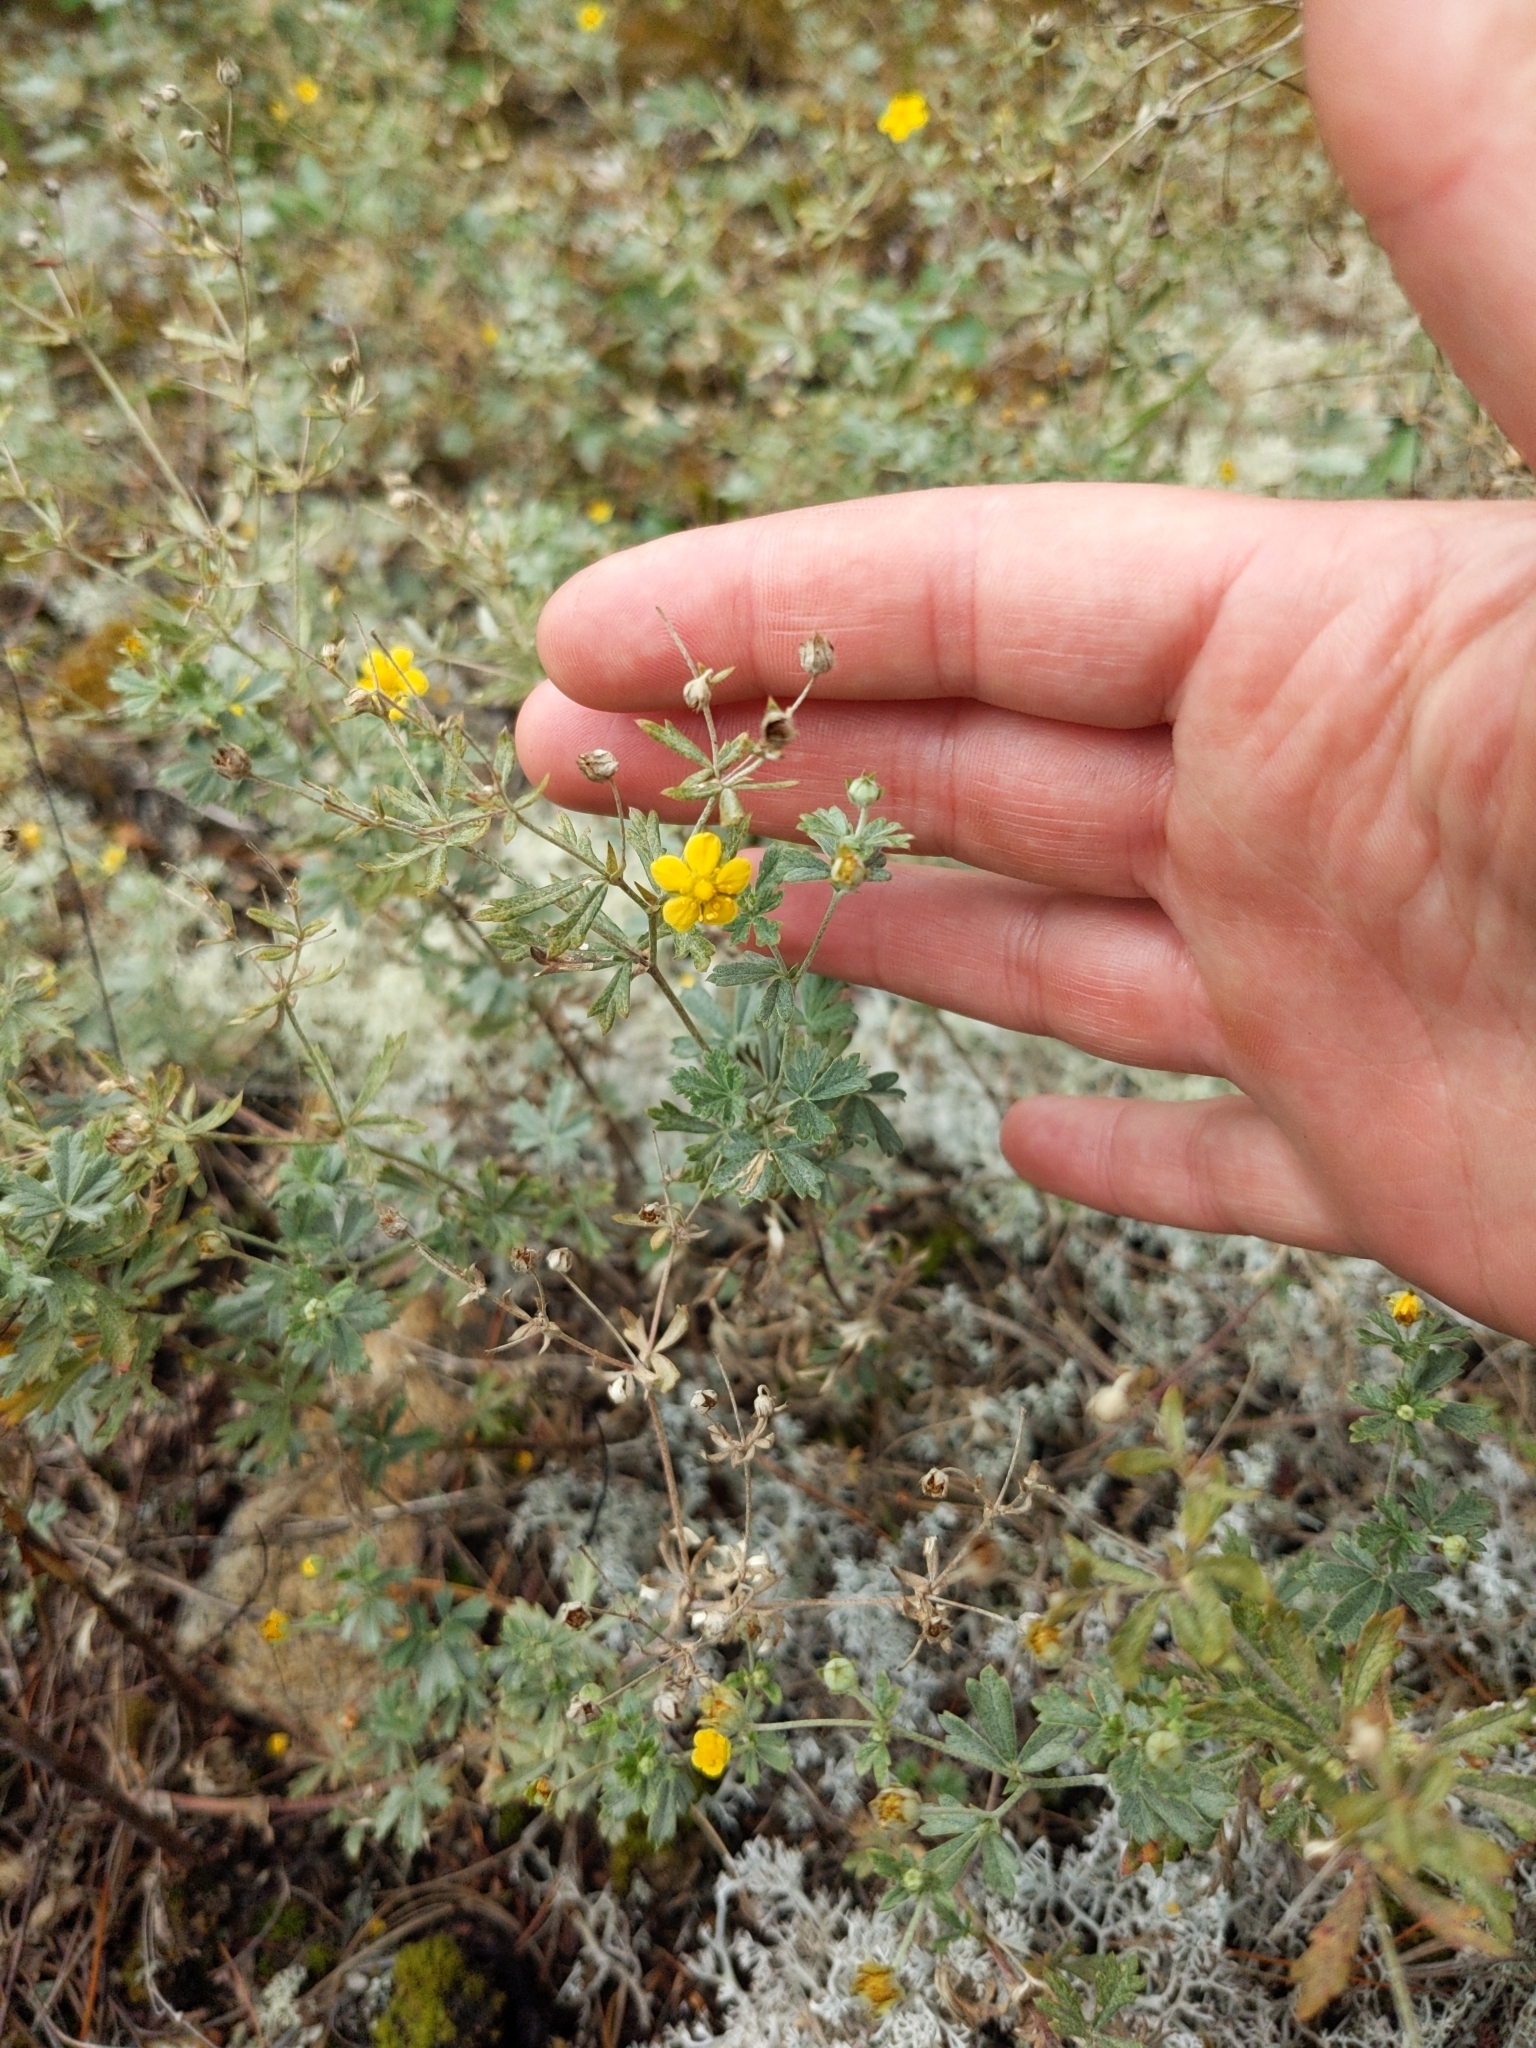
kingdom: Plantae
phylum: Tracheophyta
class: Magnoliopsida
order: Rosales
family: Rosaceae
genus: Potentilla
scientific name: Potentilla argentea
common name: Hoary cinquefoil
